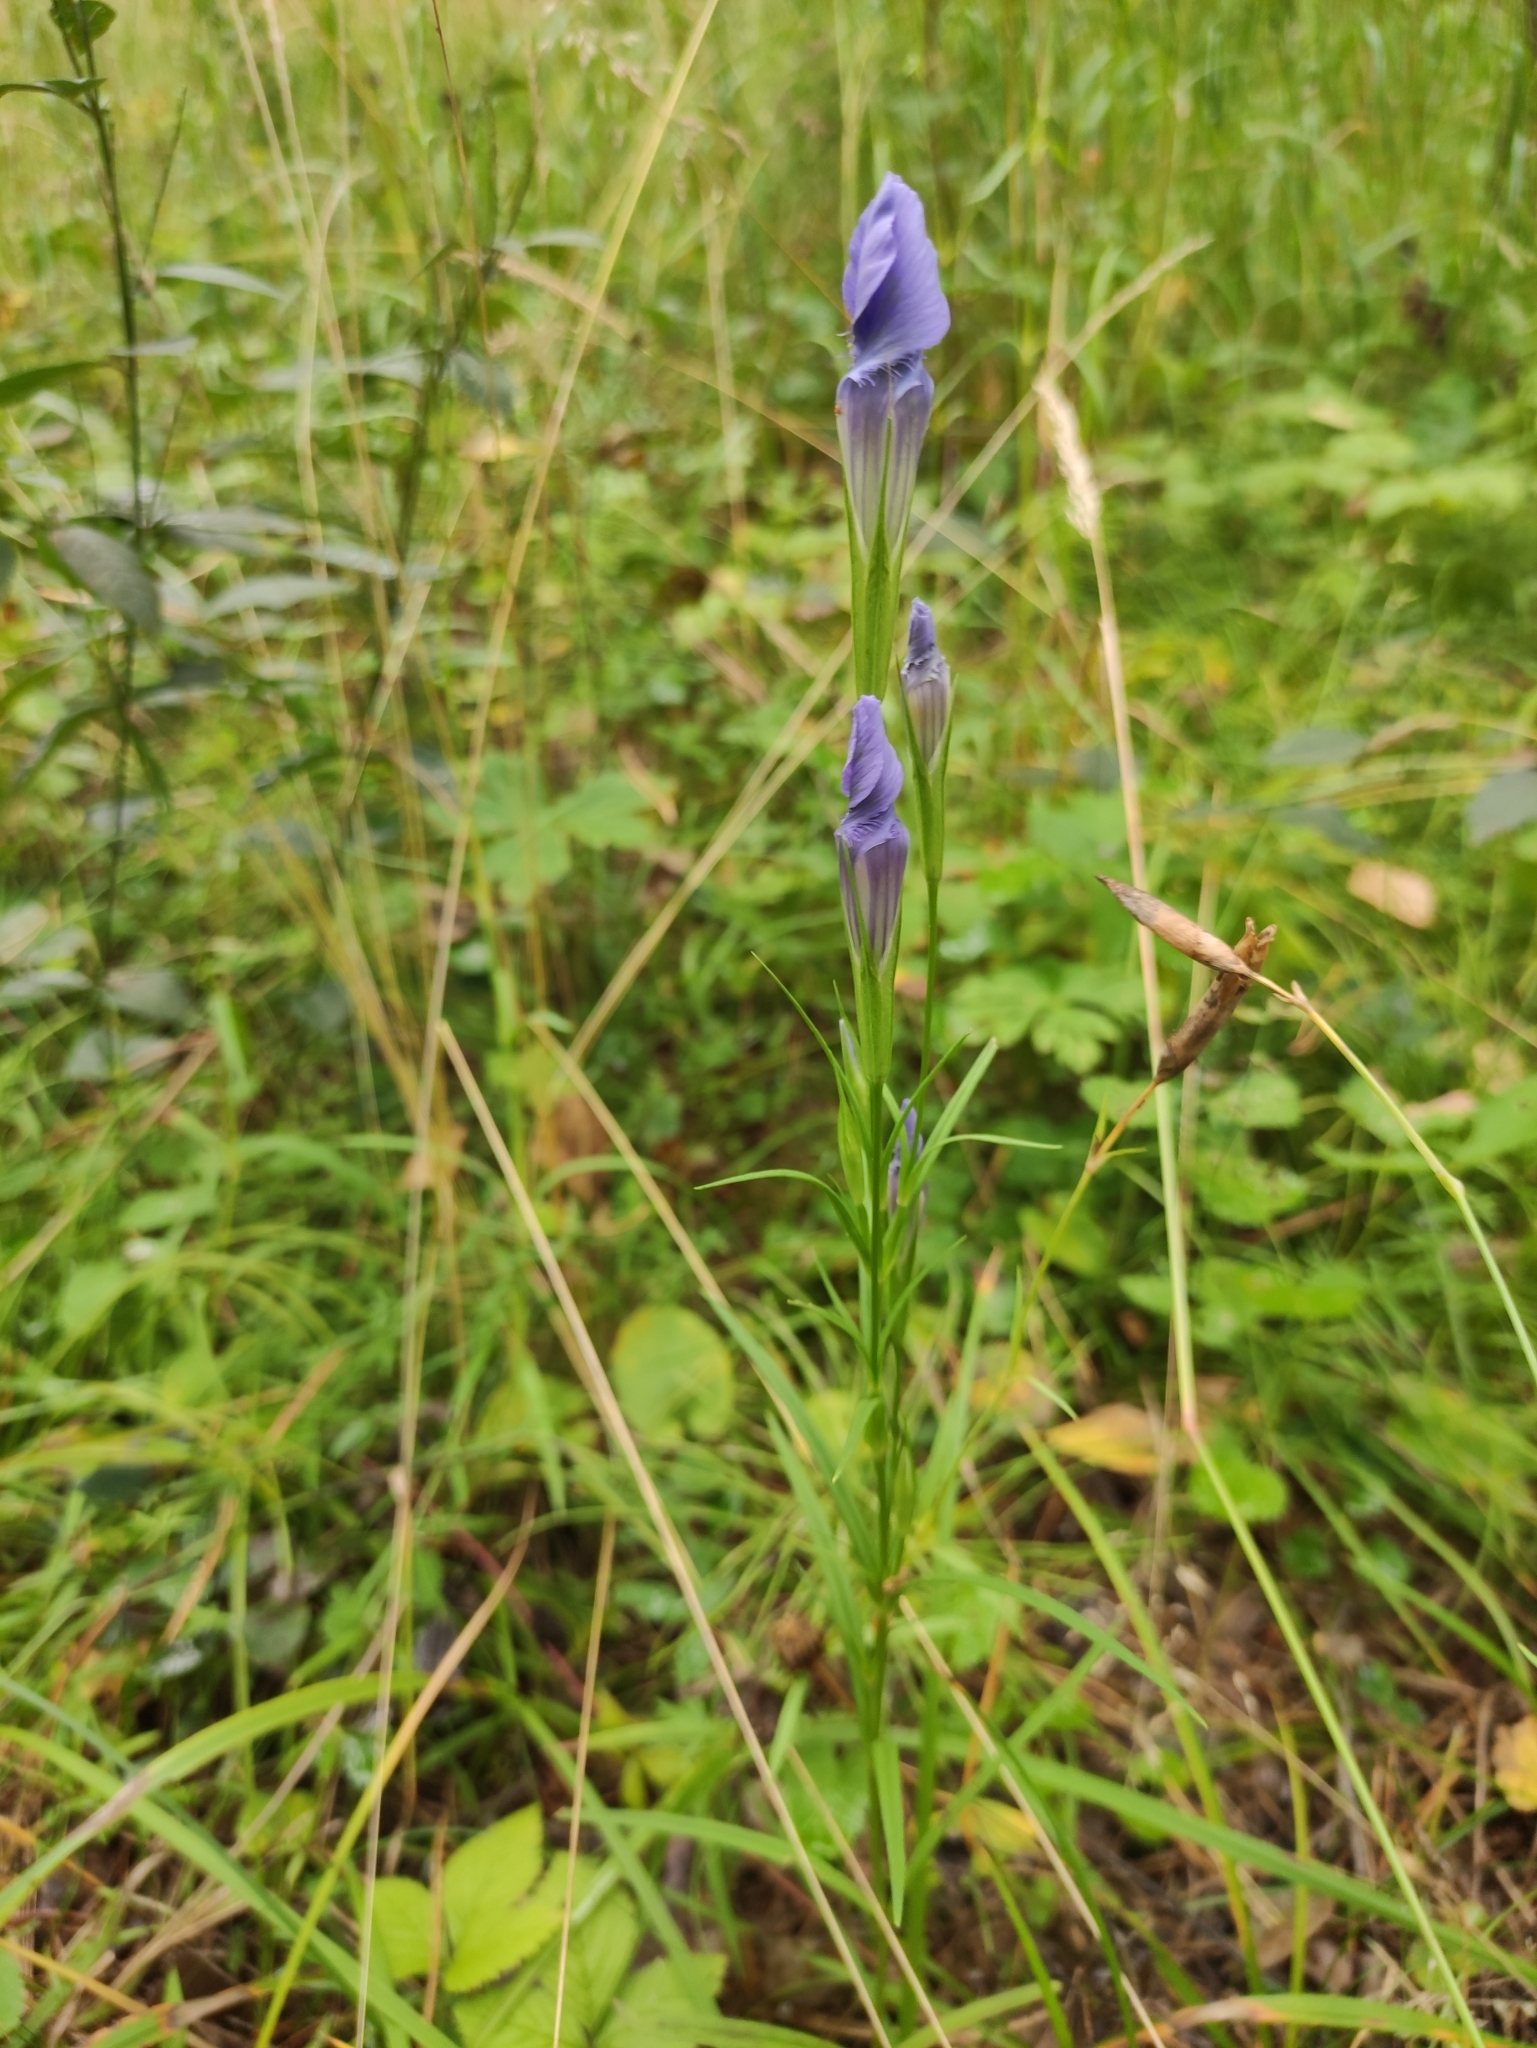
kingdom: Plantae
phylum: Tracheophyta
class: Magnoliopsida
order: Gentianales
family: Gentianaceae
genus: Gentianopsis
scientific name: Gentianopsis barbata
